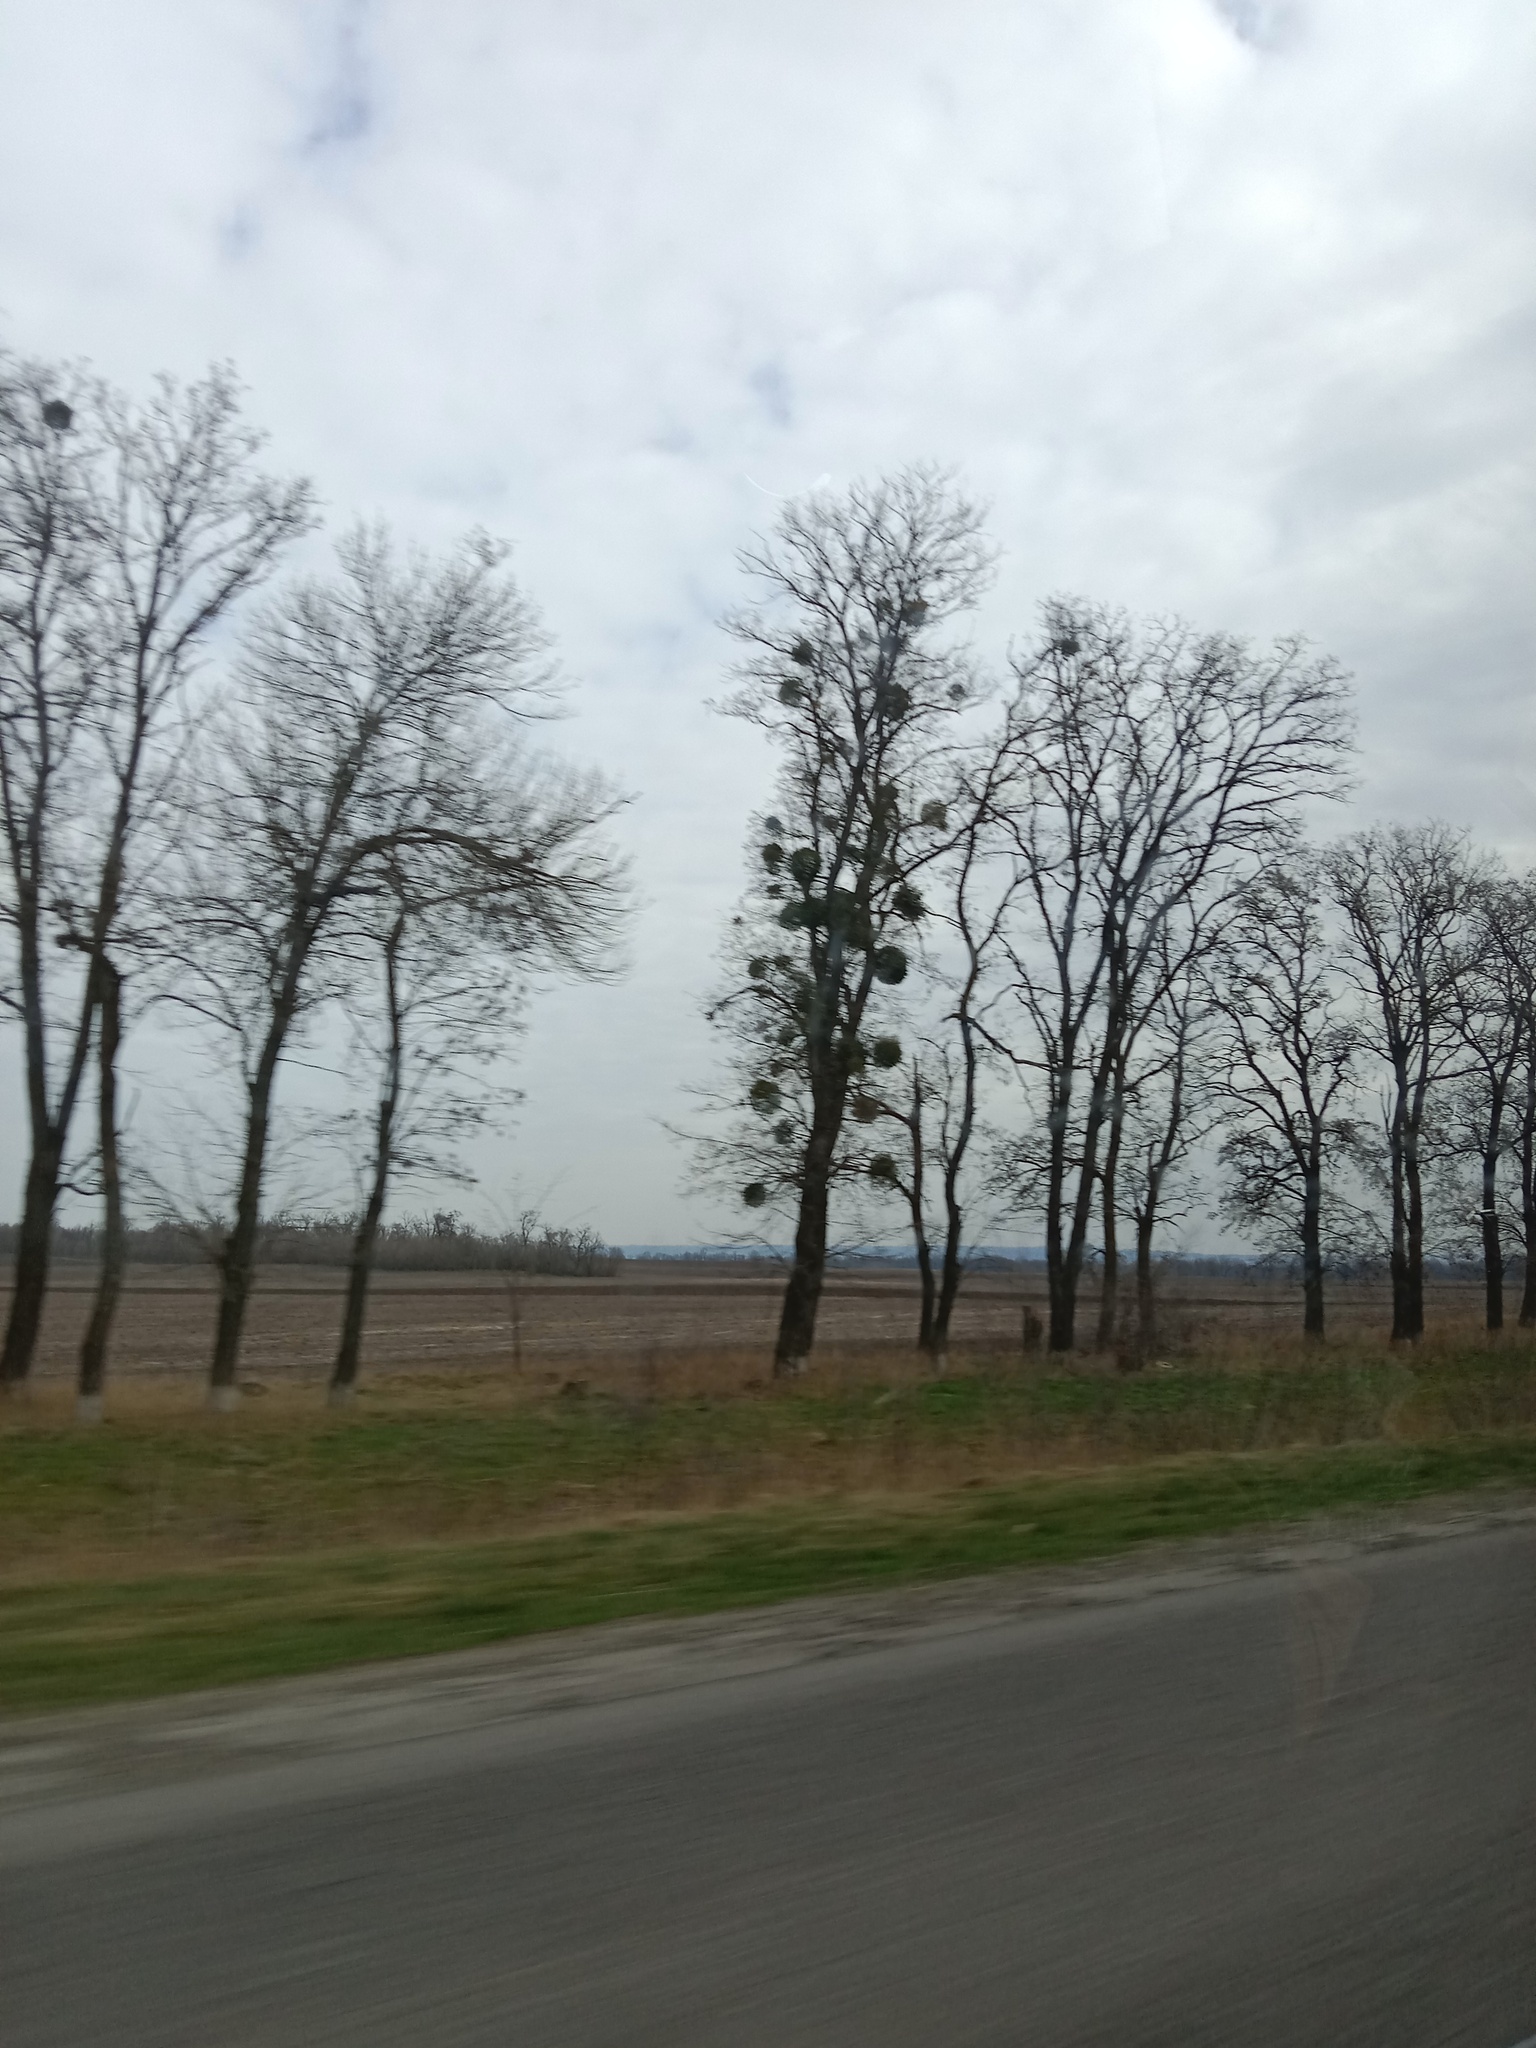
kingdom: Plantae
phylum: Tracheophyta
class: Magnoliopsida
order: Santalales
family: Viscaceae
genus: Viscum
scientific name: Viscum album
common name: Mistletoe
